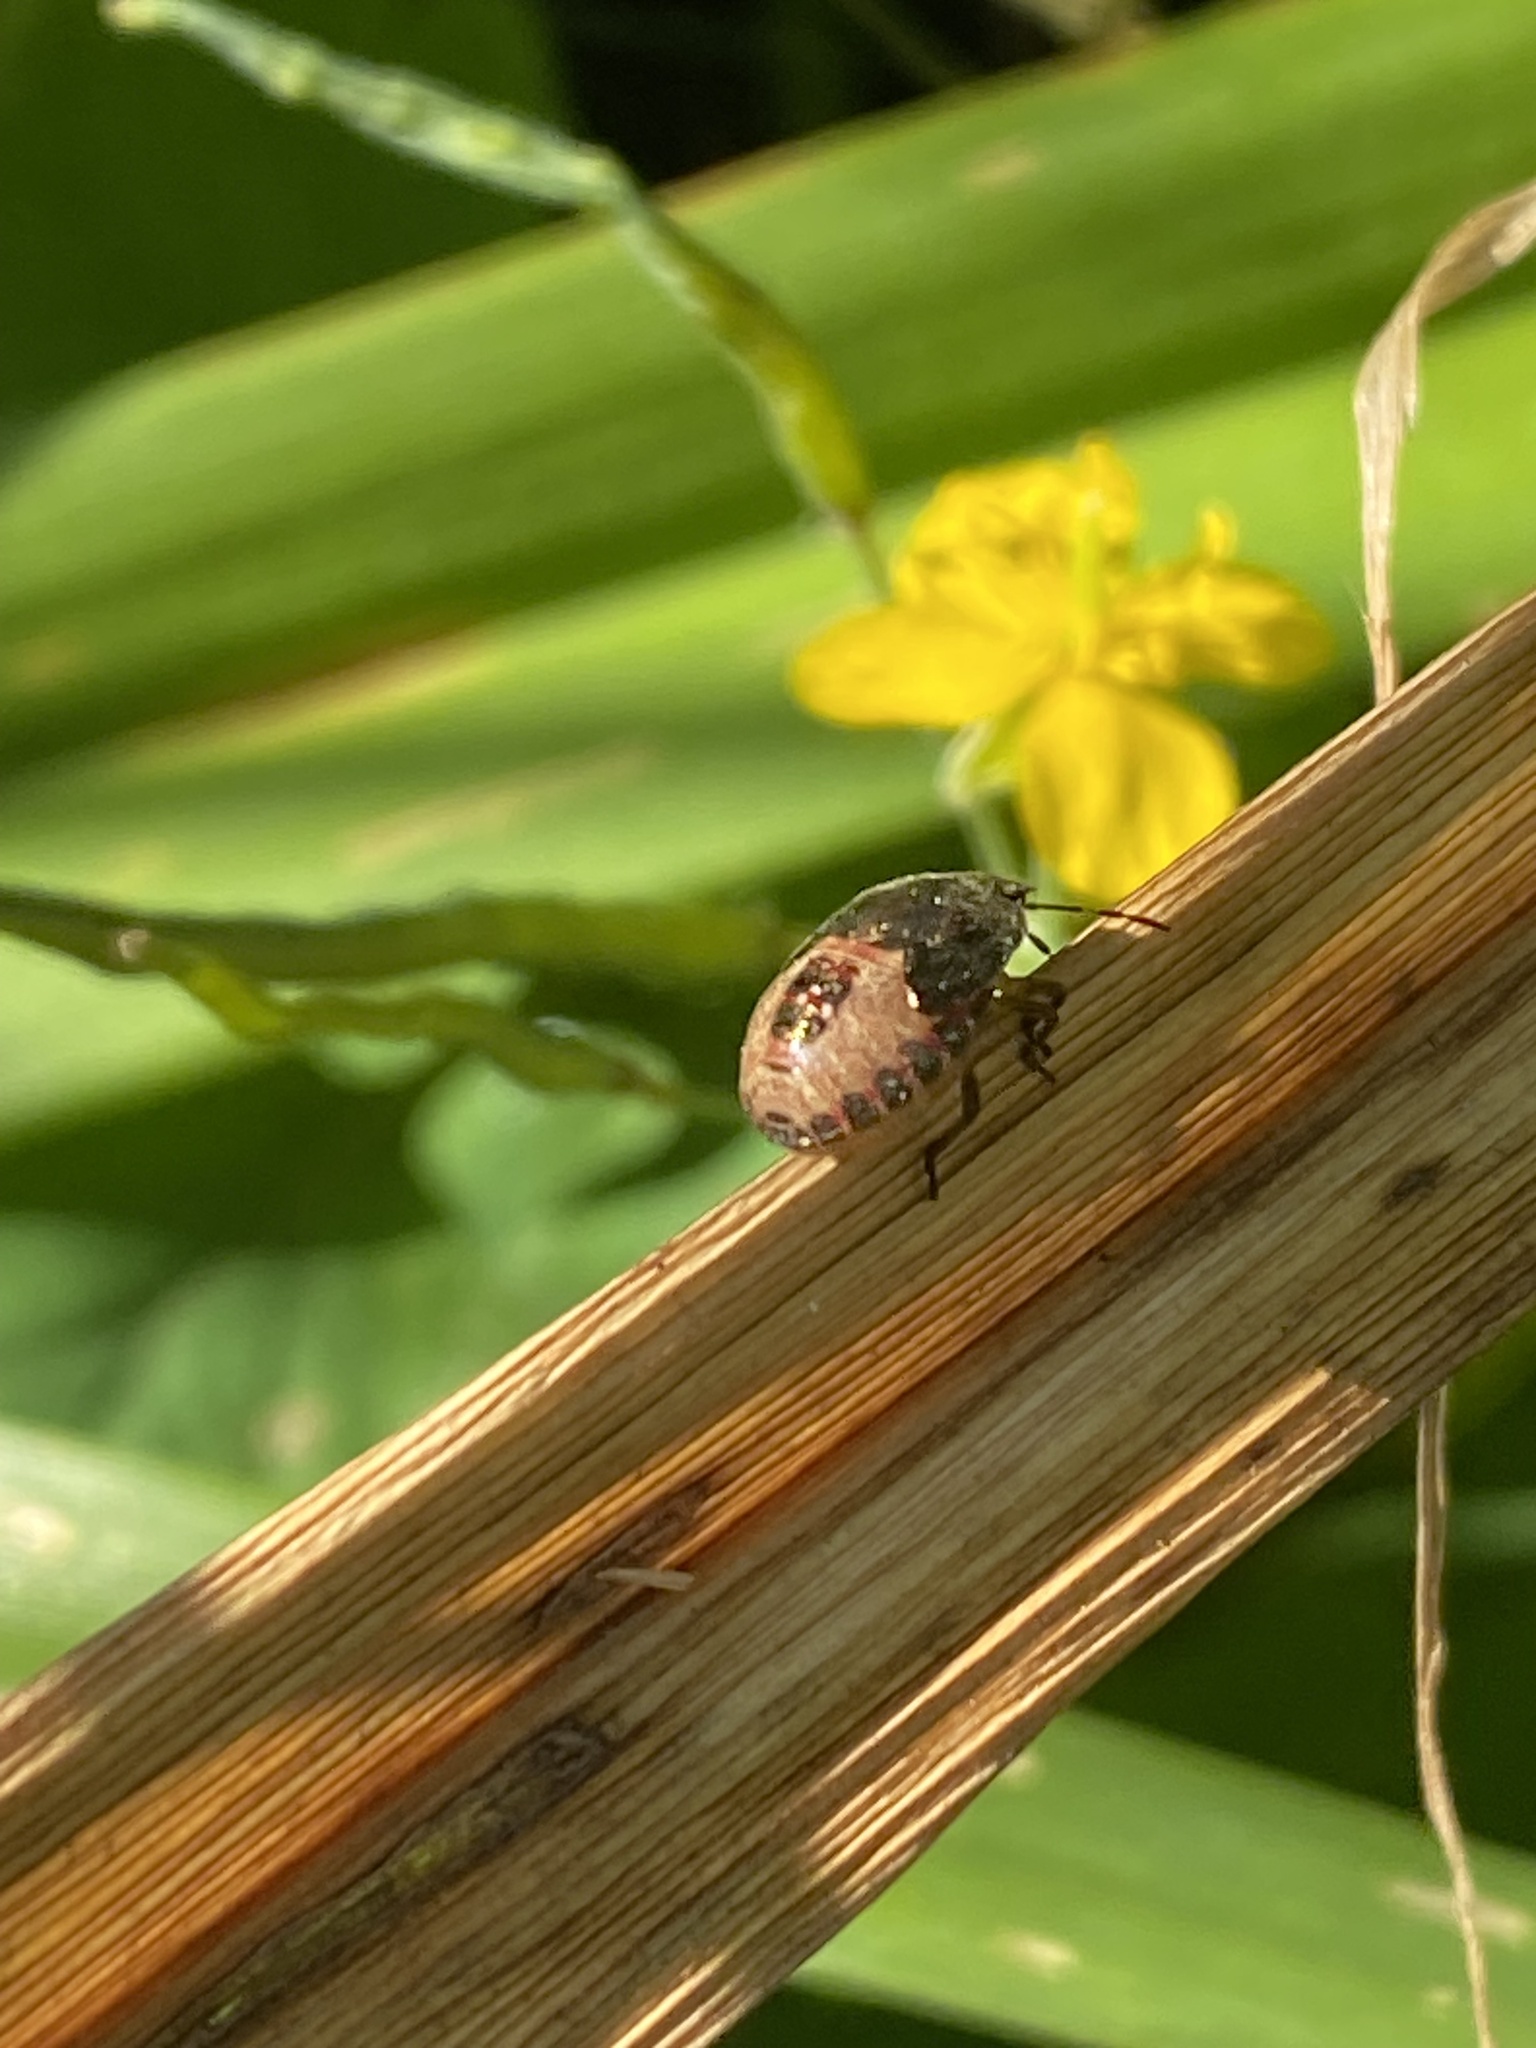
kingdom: Animalia
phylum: Arthropoda
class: Insecta
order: Hemiptera
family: Pentatomidae
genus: Dolycoris
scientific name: Dolycoris baccarum
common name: Sloe bug
